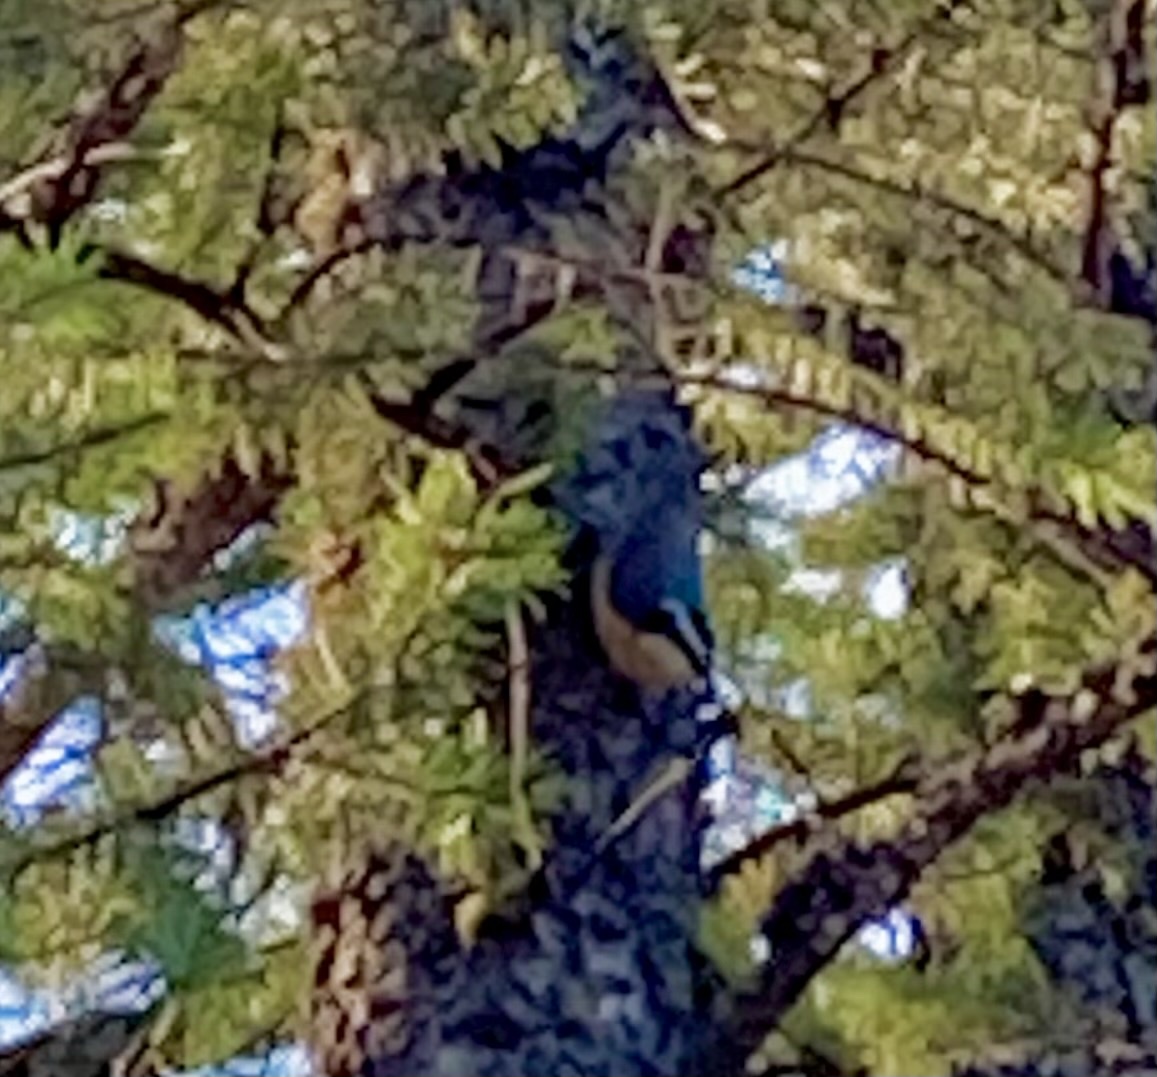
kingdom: Animalia
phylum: Chordata
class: Aves
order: Passeriformes
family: Sittidae
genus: Sitta
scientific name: Sitta canadensis
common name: Red-breasted nuthatch
